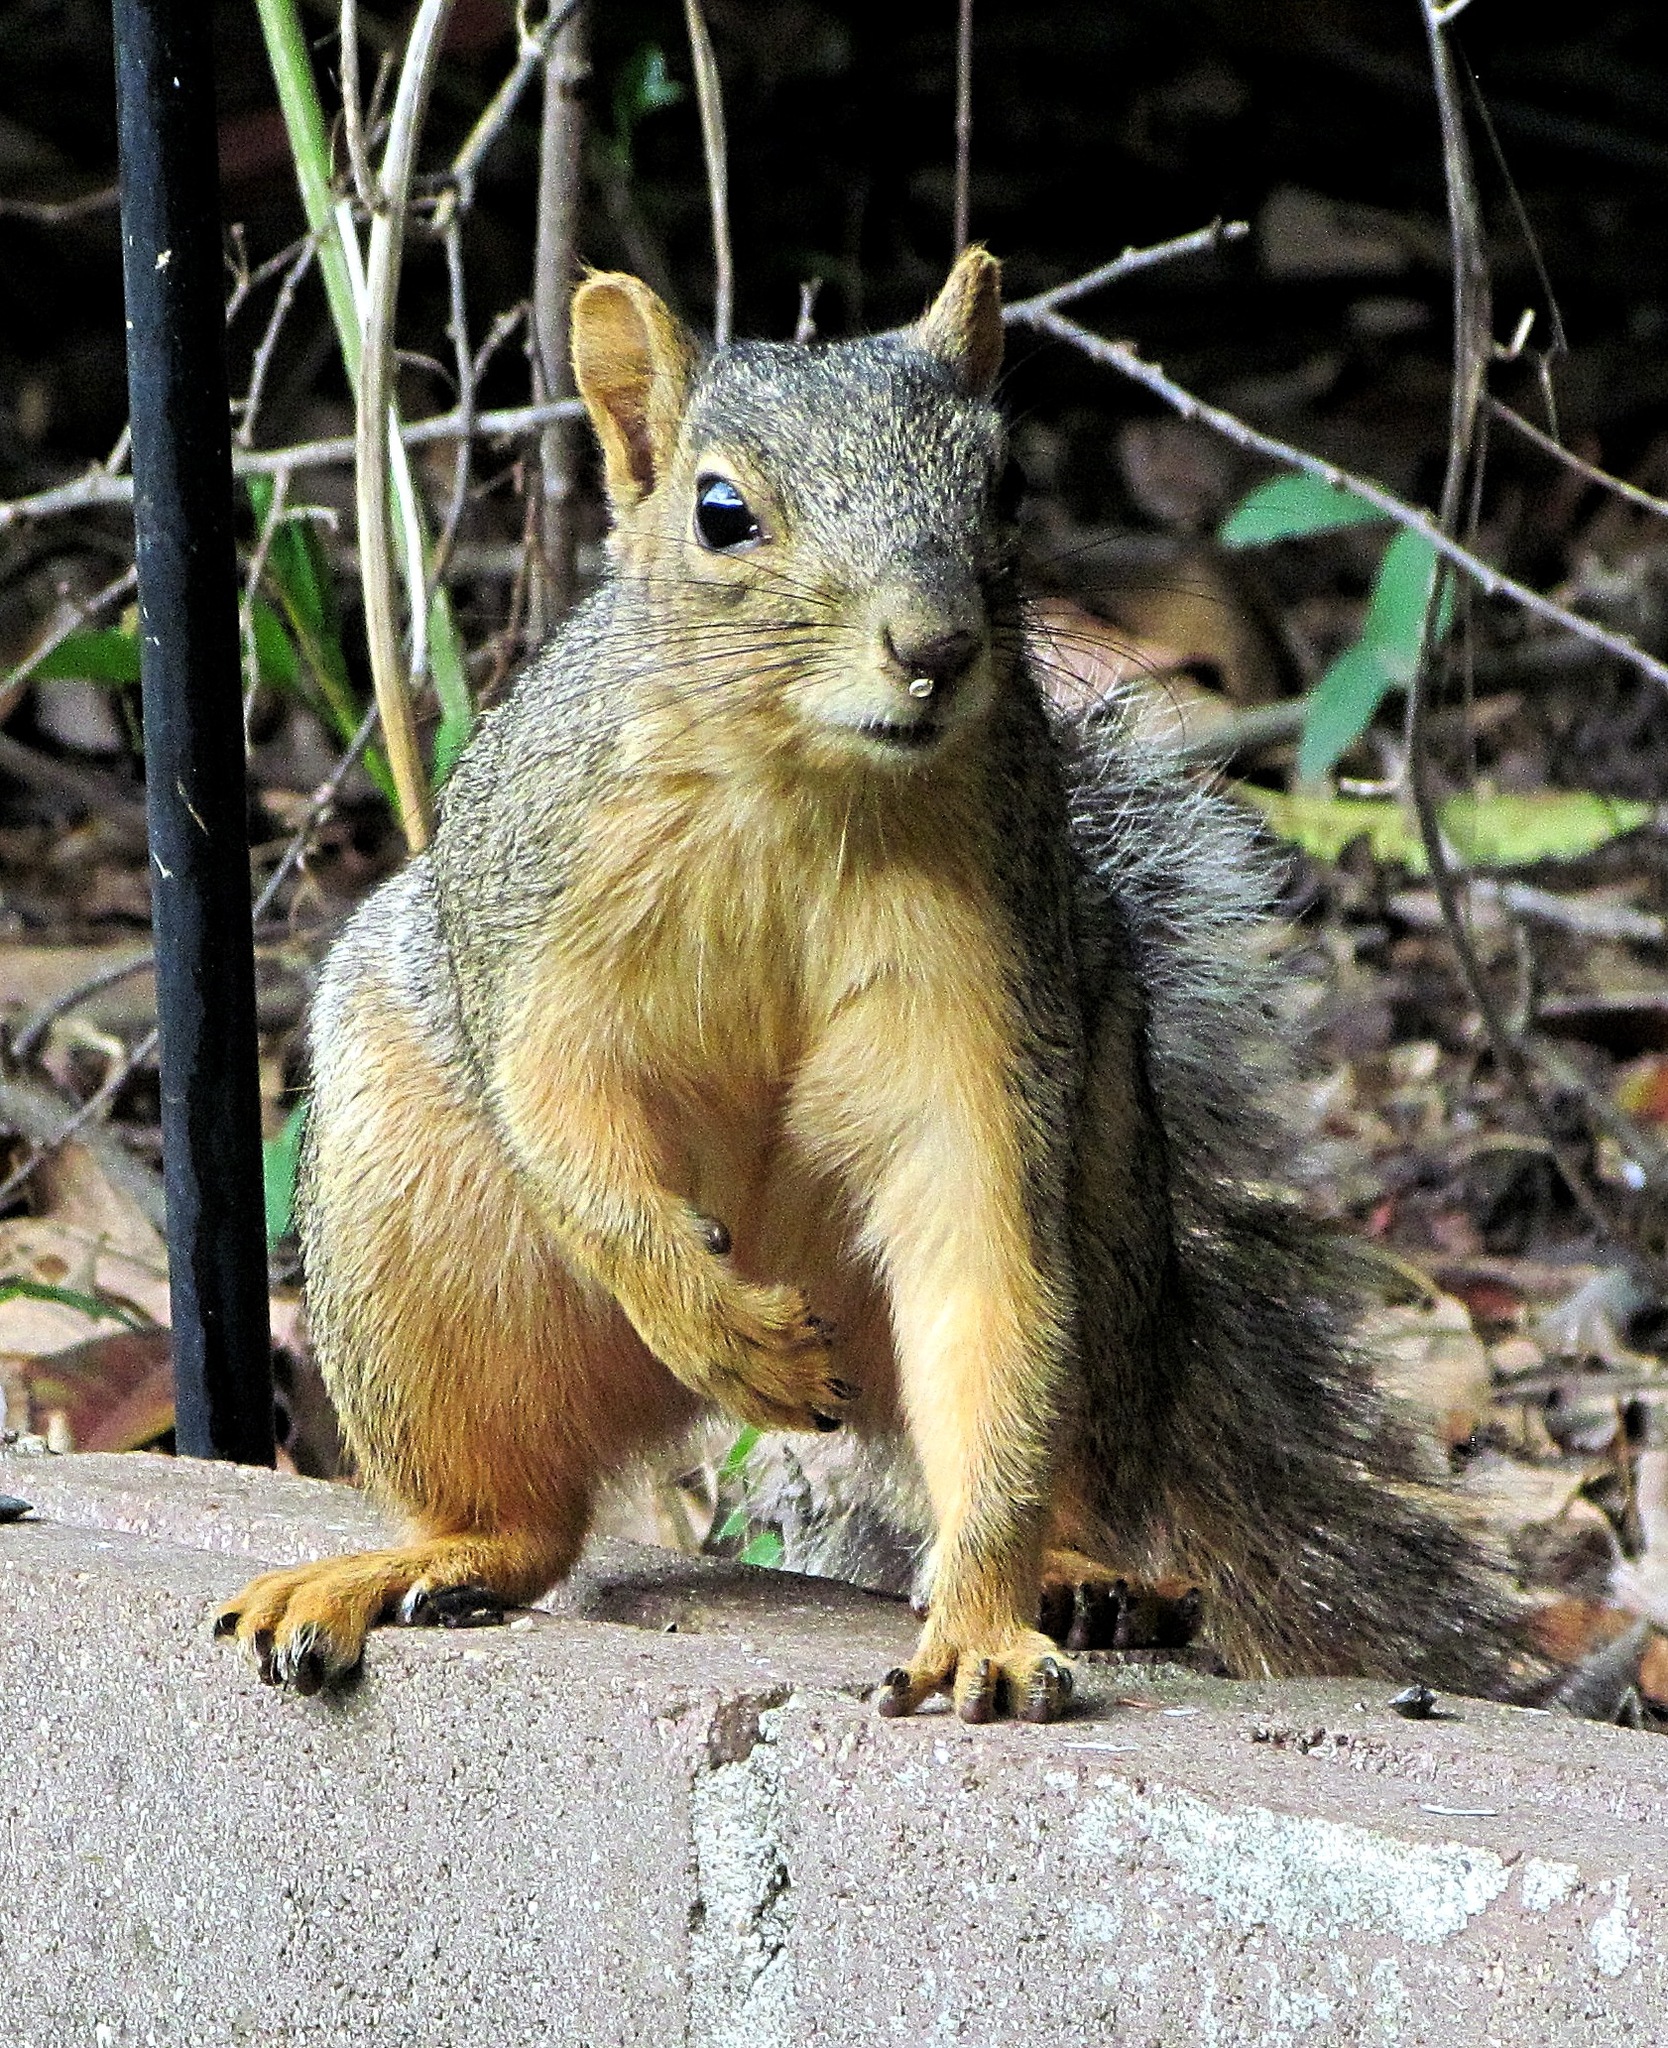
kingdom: Animalia
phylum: Chordata
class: Mammalia
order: Rodentia
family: Sciuridae
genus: Sciurus
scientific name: Sciurus niger
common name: Fox squirrel
